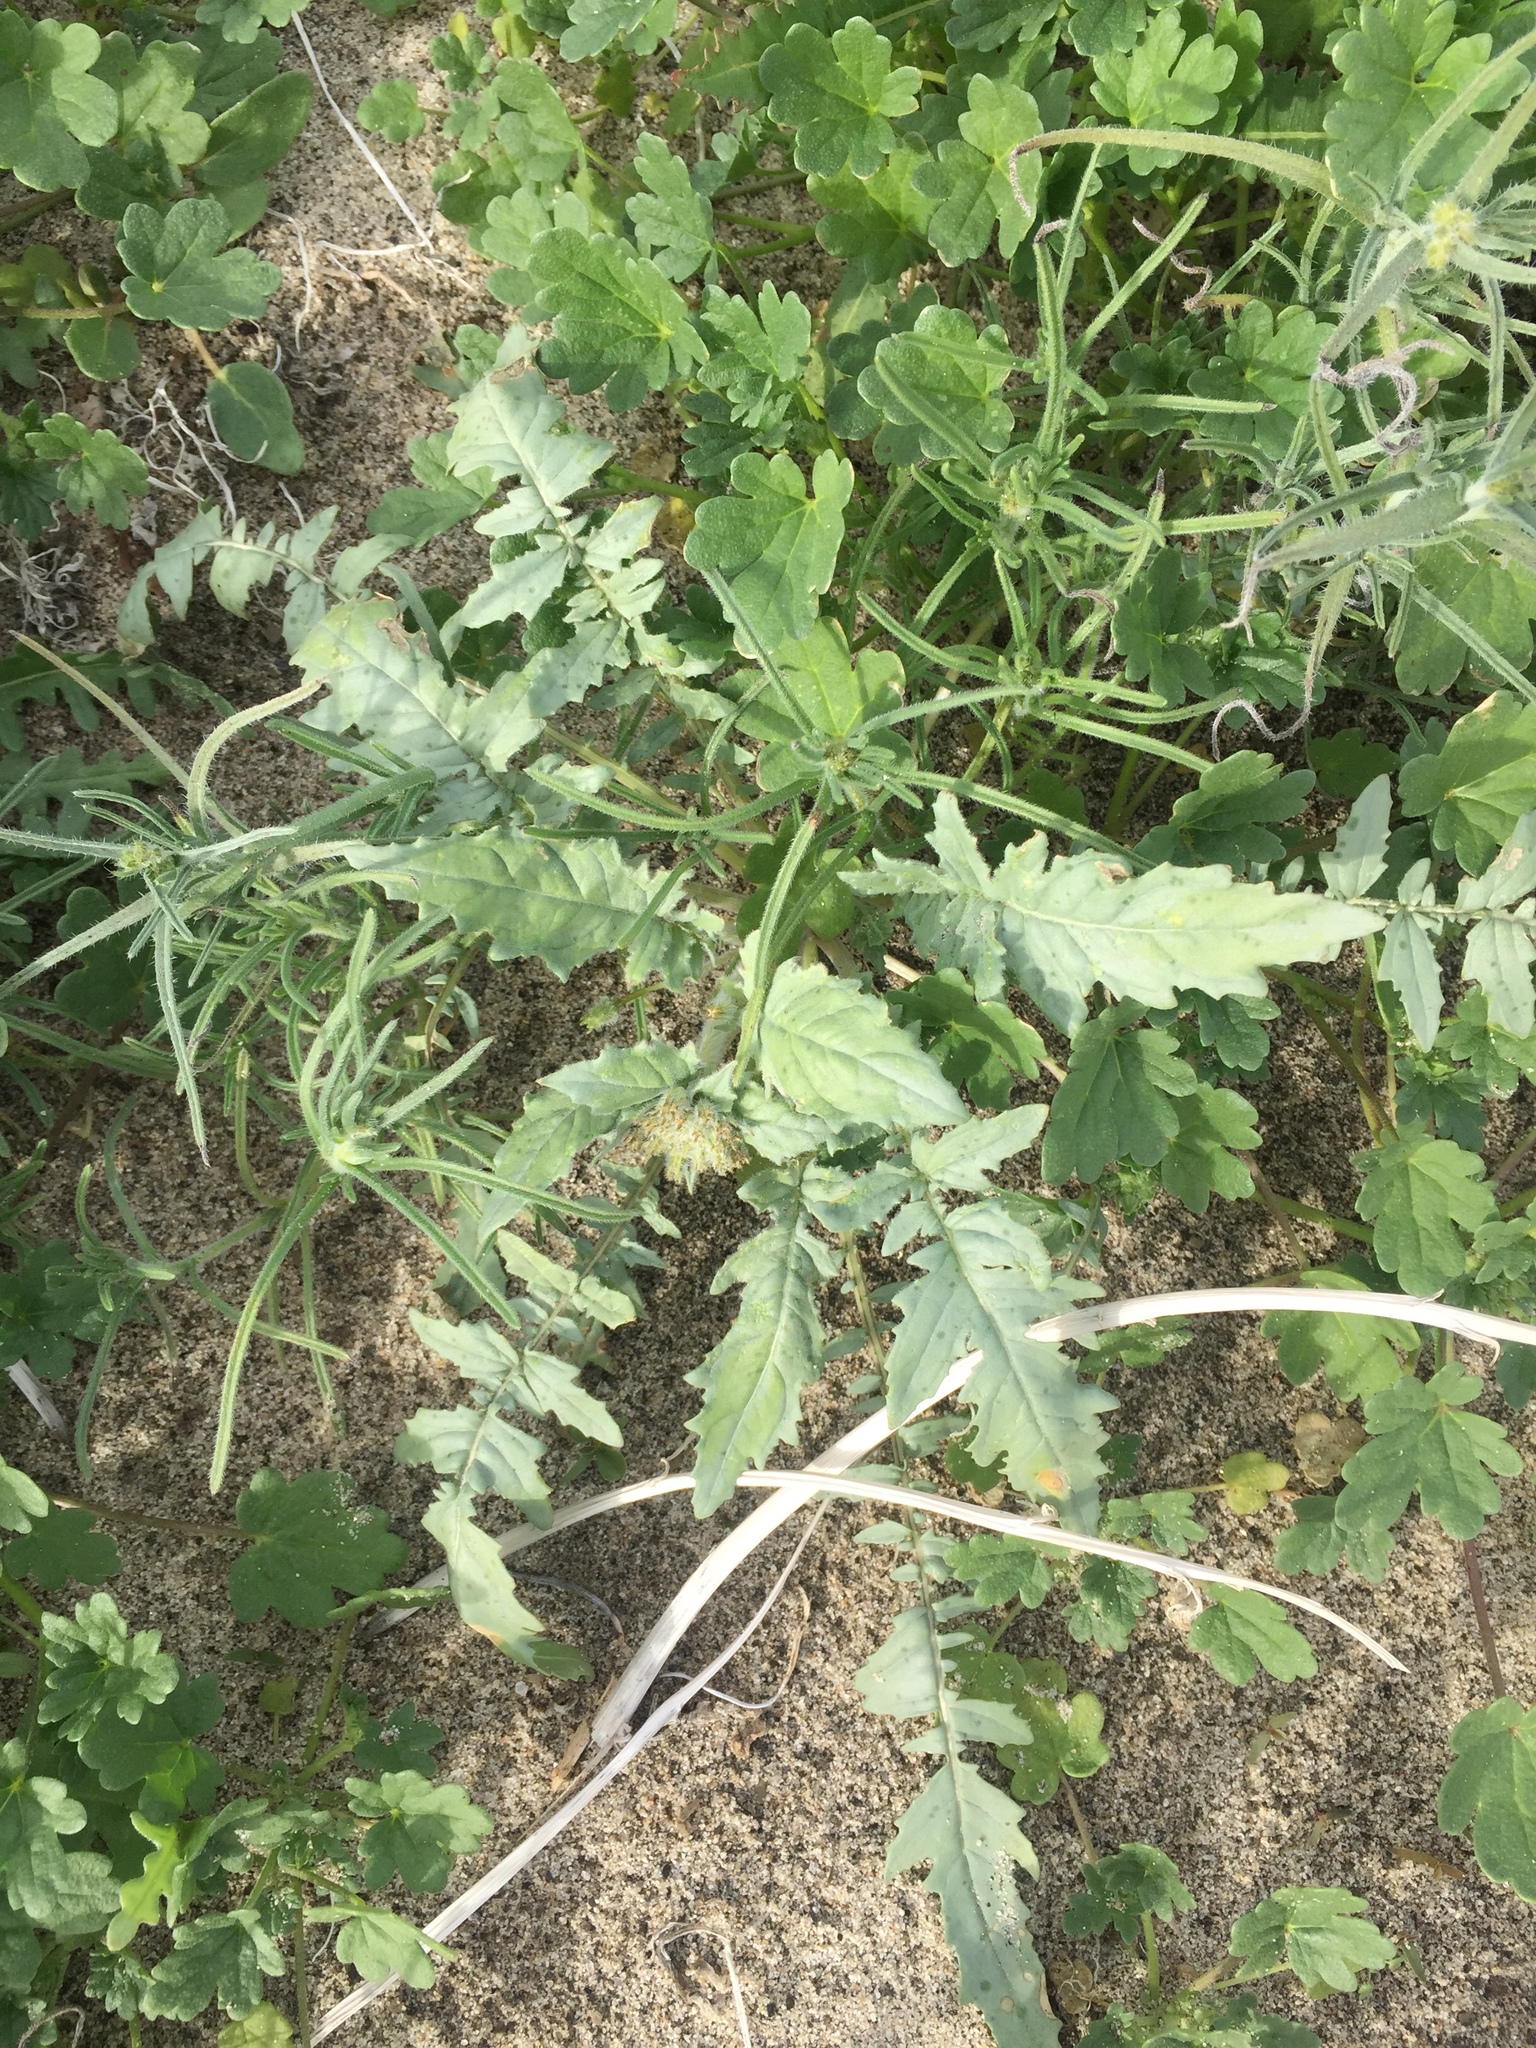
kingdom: Plantae
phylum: Tracheophyta
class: Magnoliopsida
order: Myrtales
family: Onagraceae
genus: Chylismia
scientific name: Chylismia claviformis
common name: Browneyes
